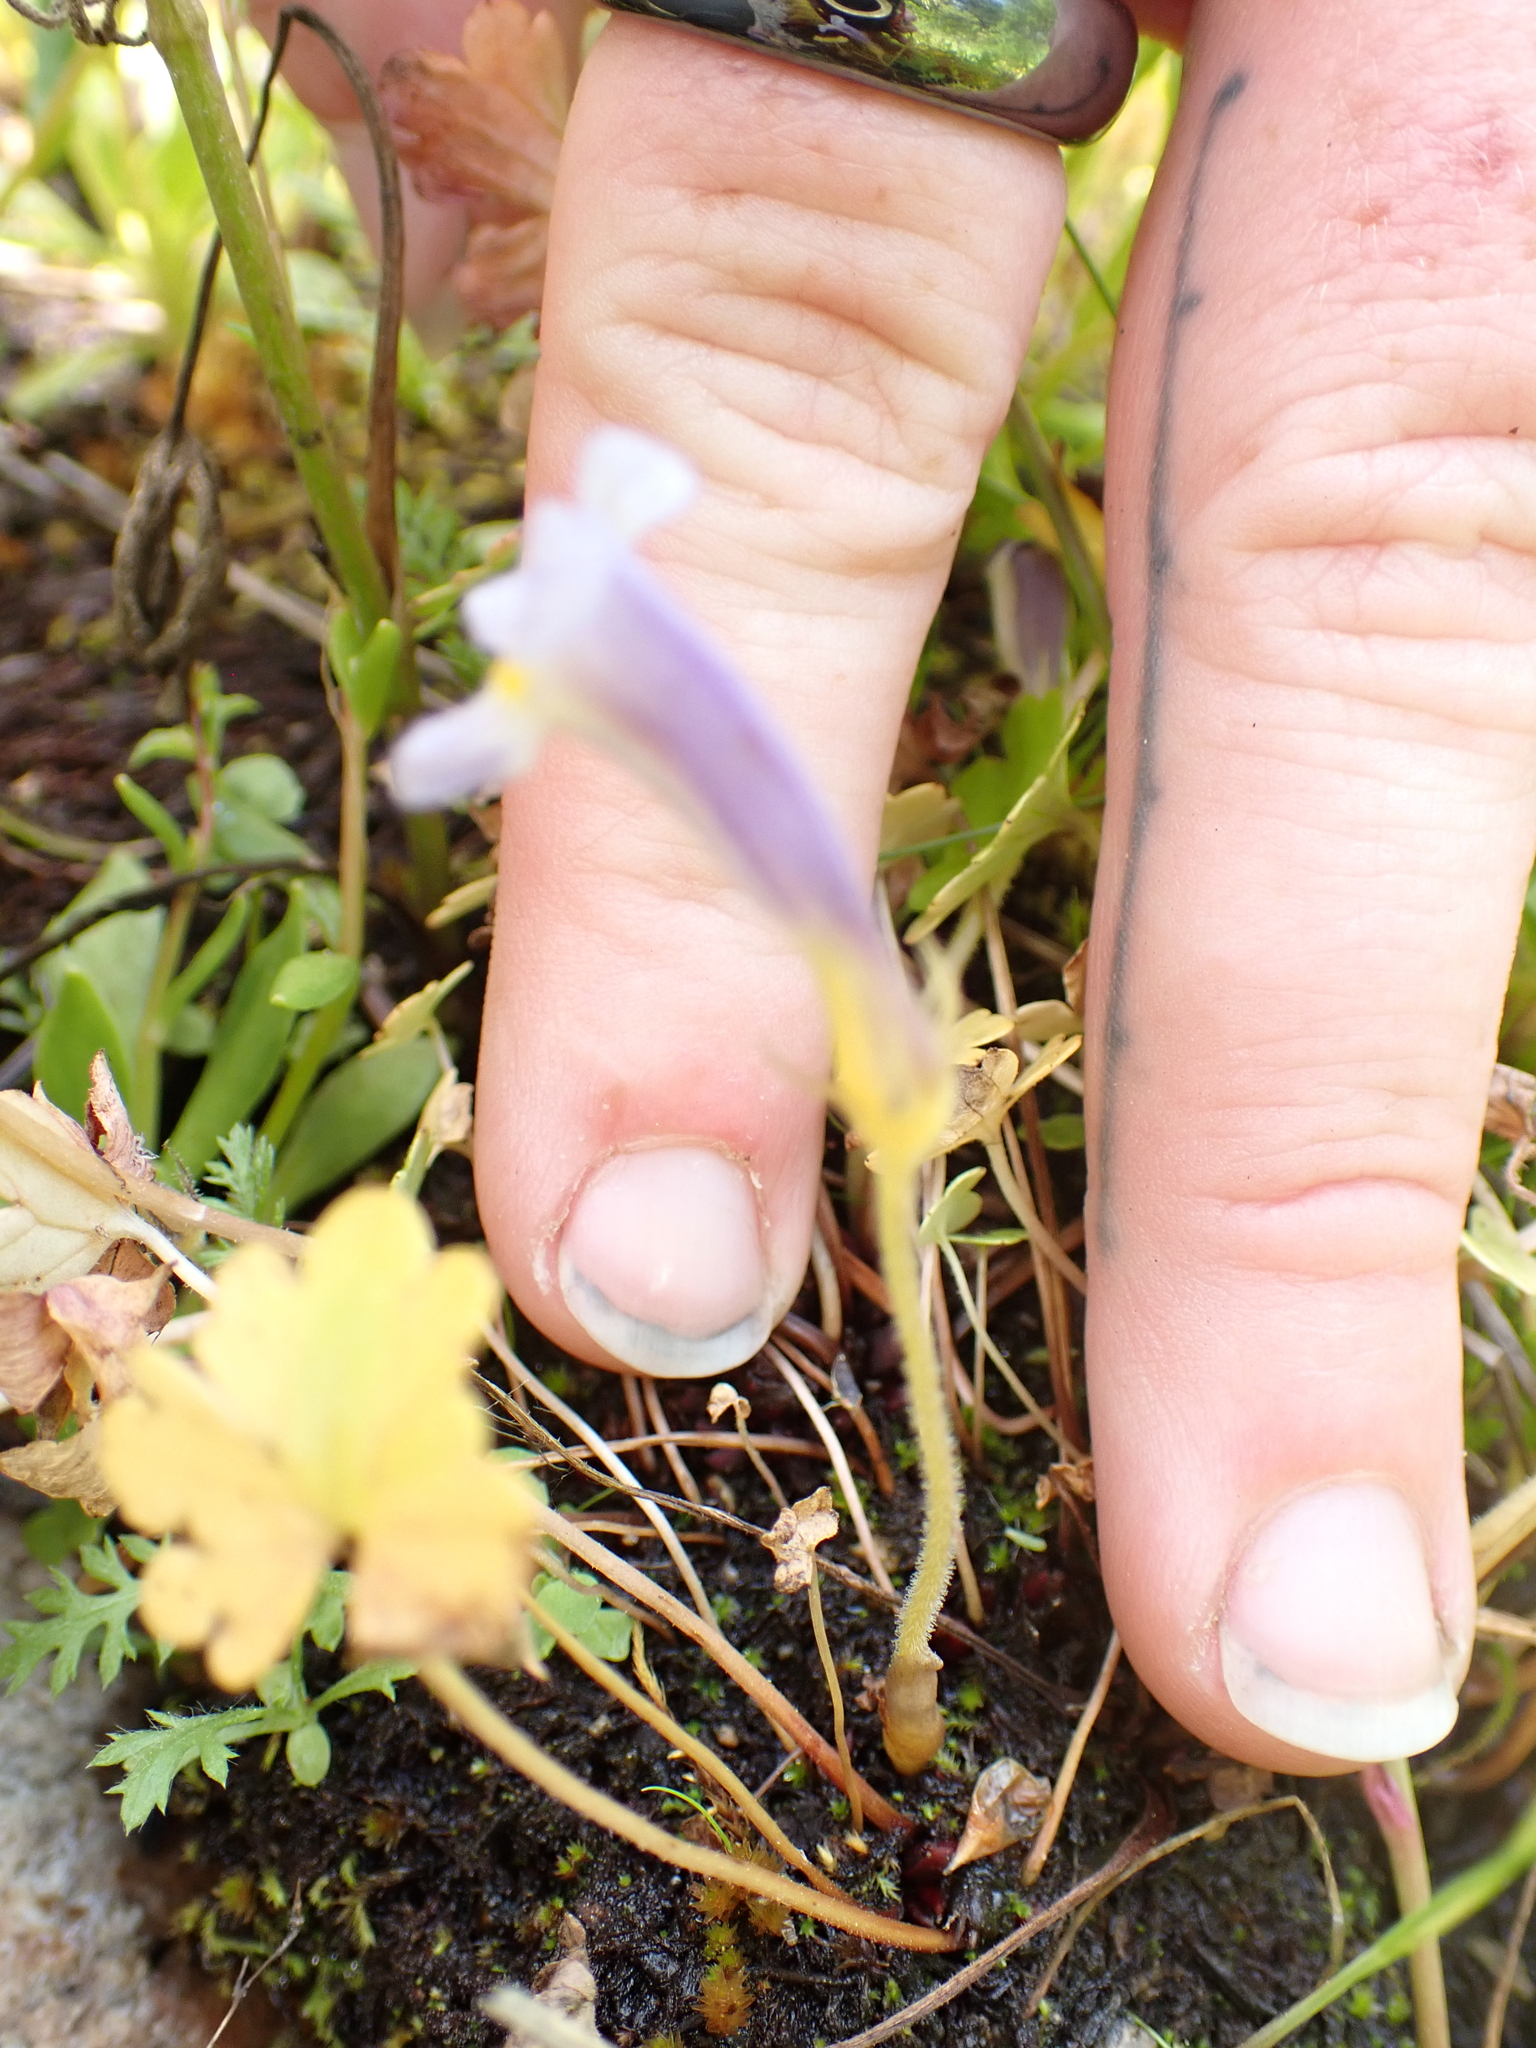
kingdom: Plantae
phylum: Tracheophyta
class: Magnoliopsida
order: Lamiales
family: Orobanchaceae
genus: Aphyllon
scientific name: Aphyllon uniflorum
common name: One-flowered broomrape
